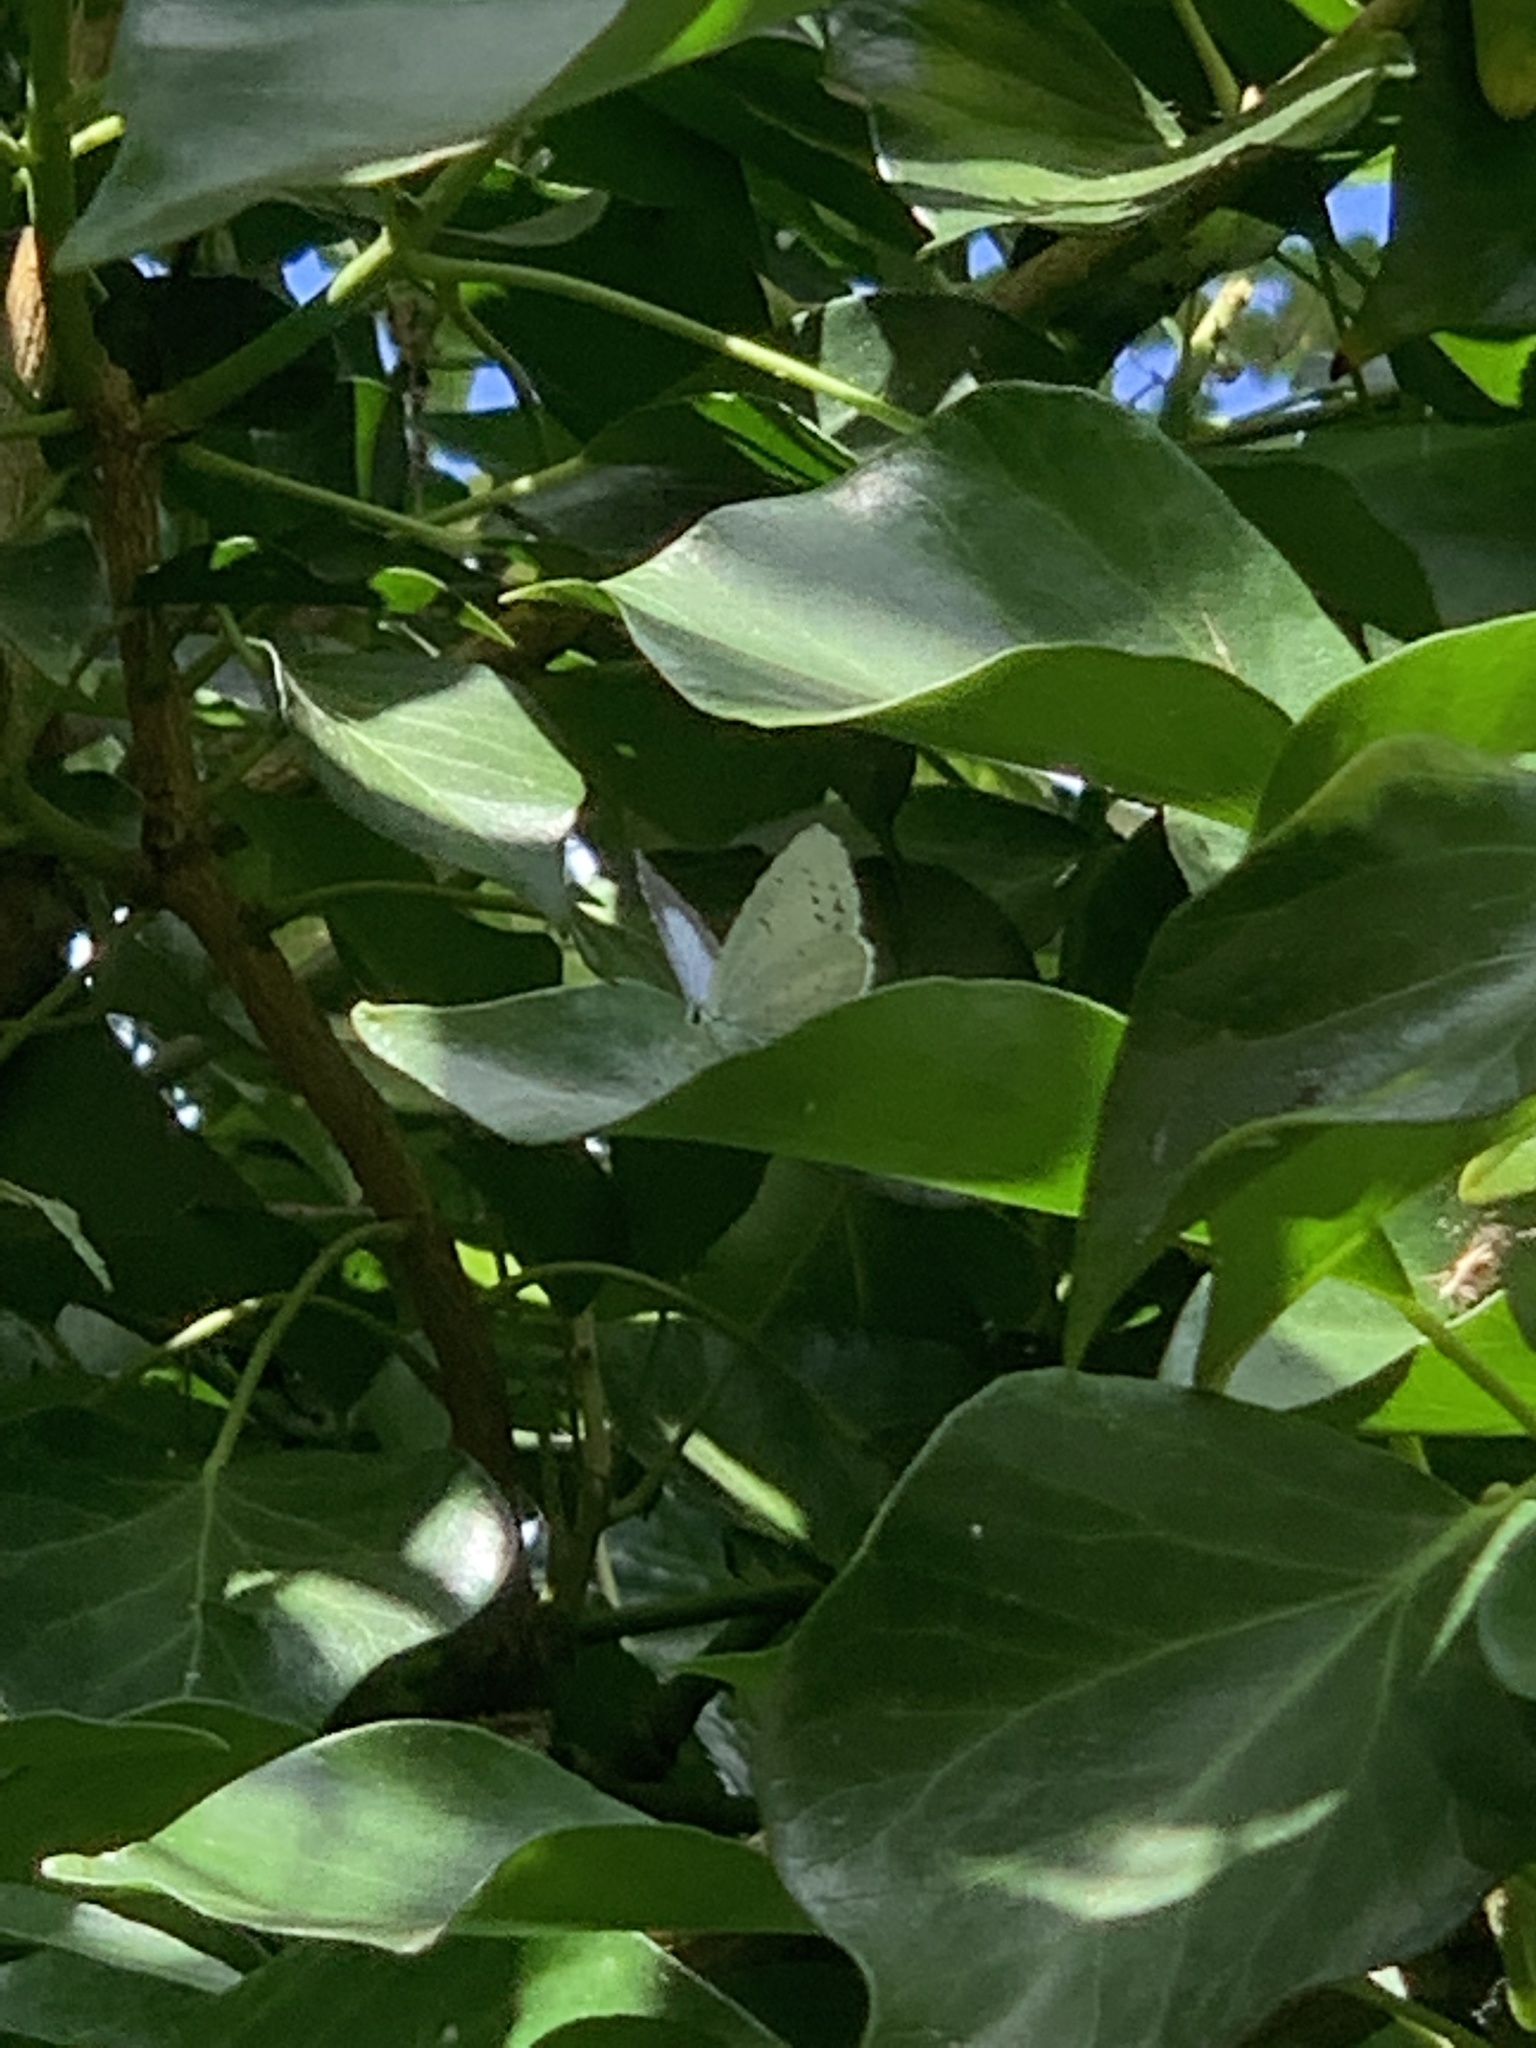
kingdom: Animalia
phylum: Arthropoda
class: Insecta
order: Lepidoptera
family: Lycaenidae
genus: Celastrina
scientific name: Celastrina argiolus
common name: Holly blue
